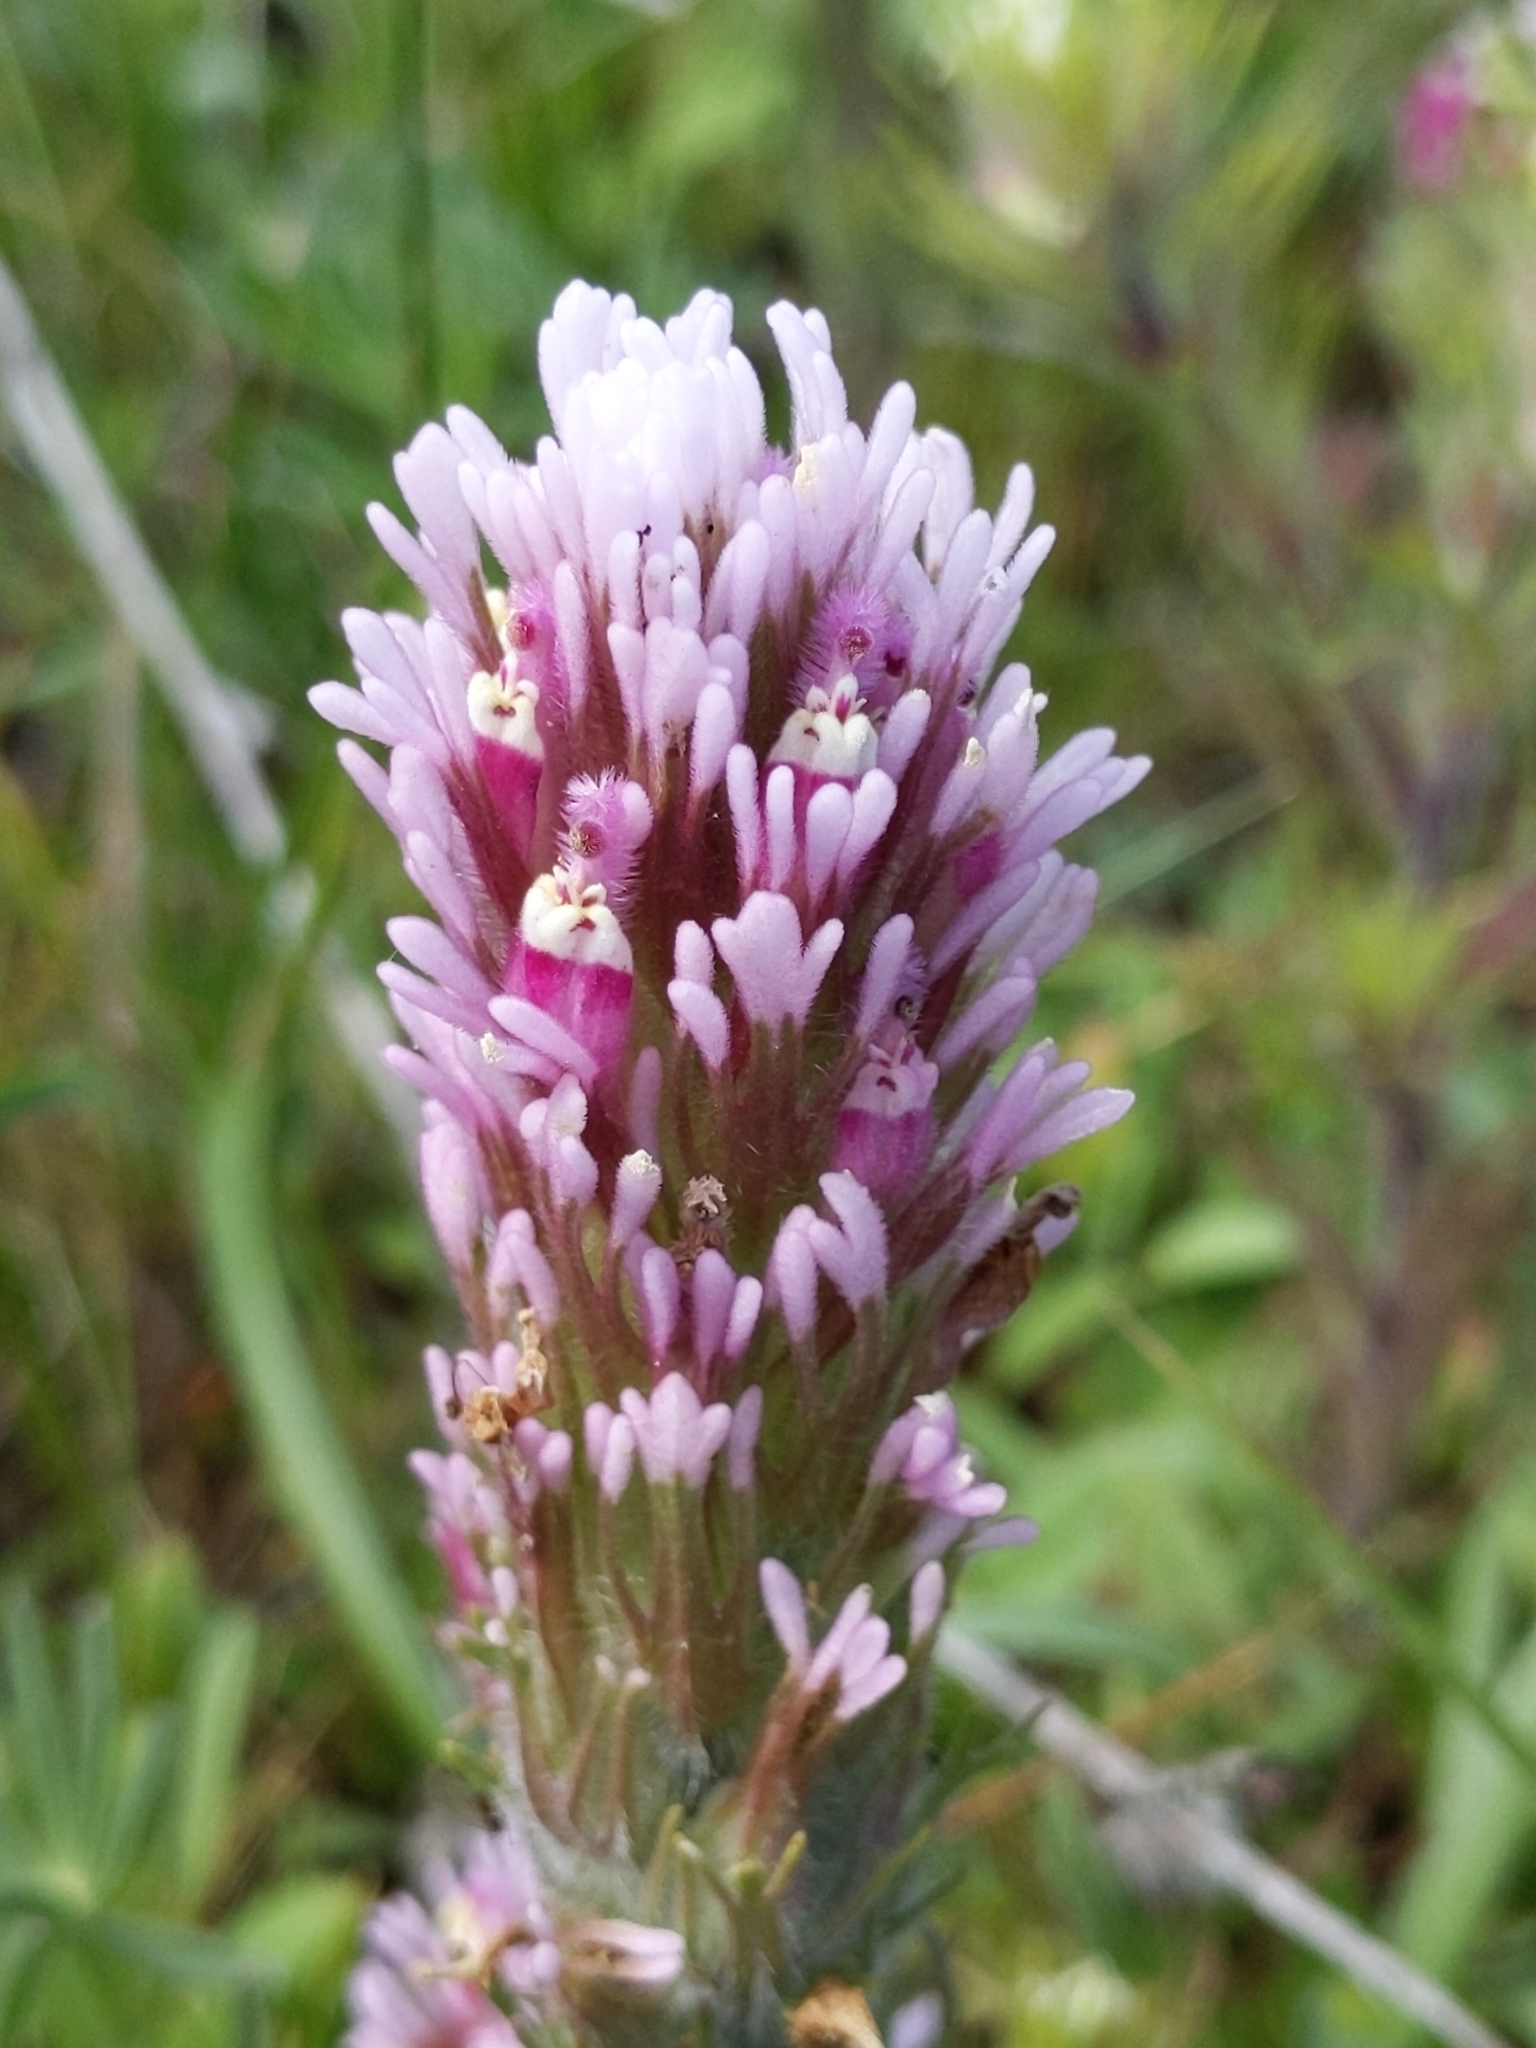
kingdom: Plantae
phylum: Tracheophyta
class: Magnoliopsida
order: Lamiales
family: Orobanchaceae
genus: Castilleja
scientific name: Castilleja exserta
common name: Purple owl-clover
